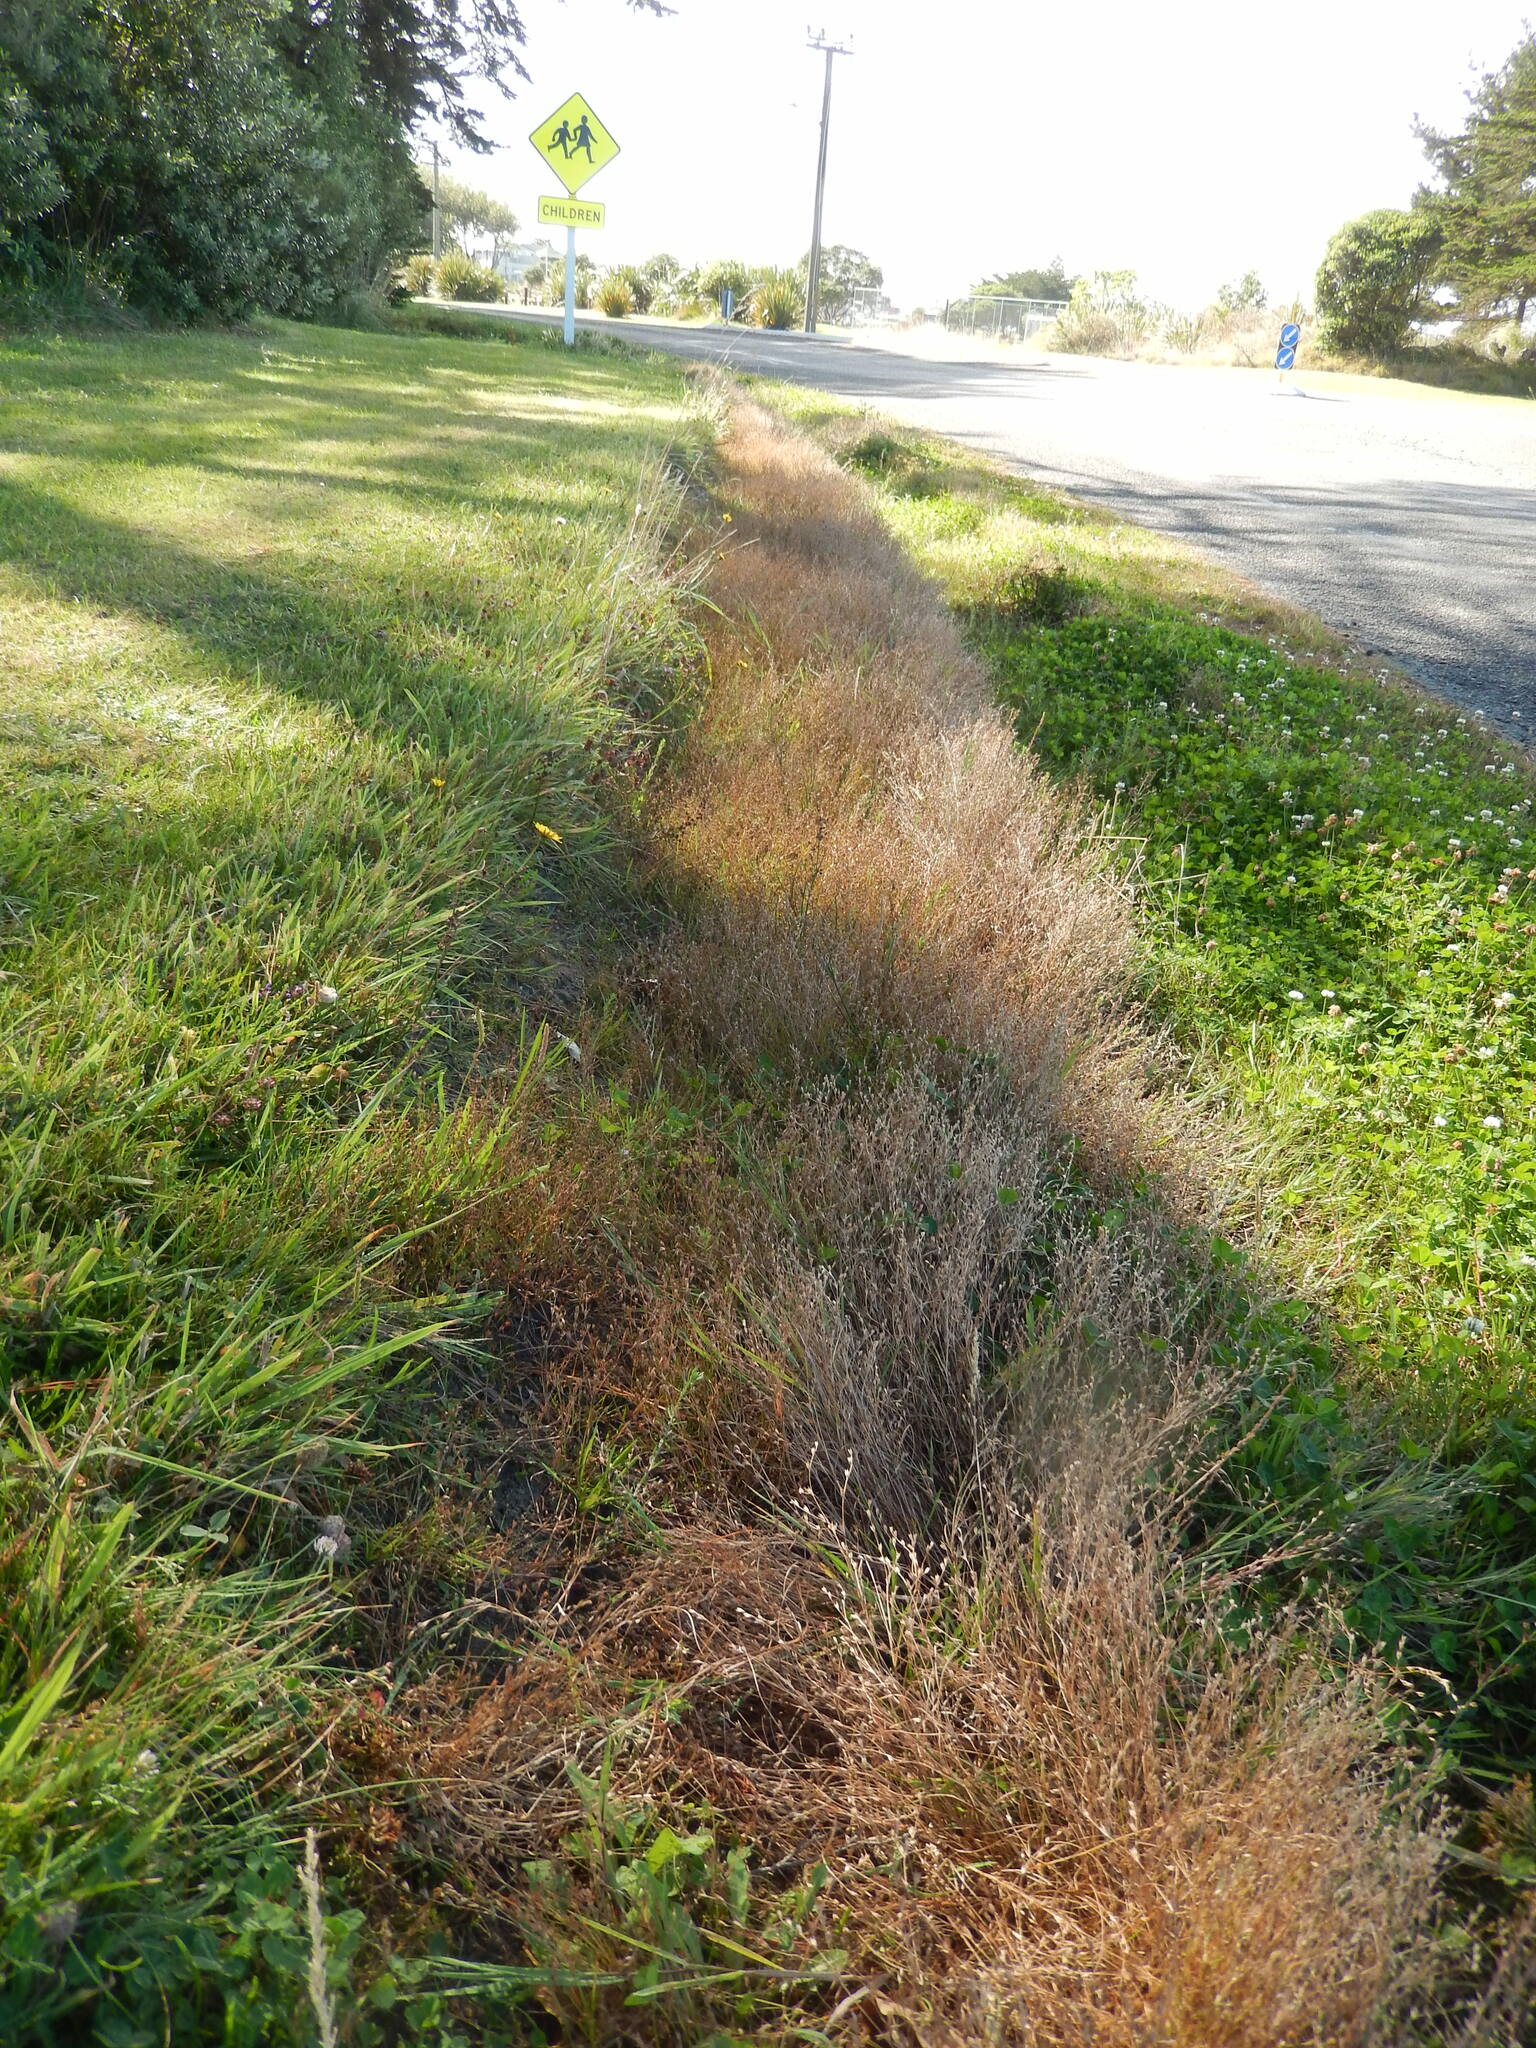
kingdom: Plantae
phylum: Tracheophyta
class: Liliopsida
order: Poales
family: Juncaceae
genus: Juncus
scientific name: Juncus bufonius
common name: Toad rush
